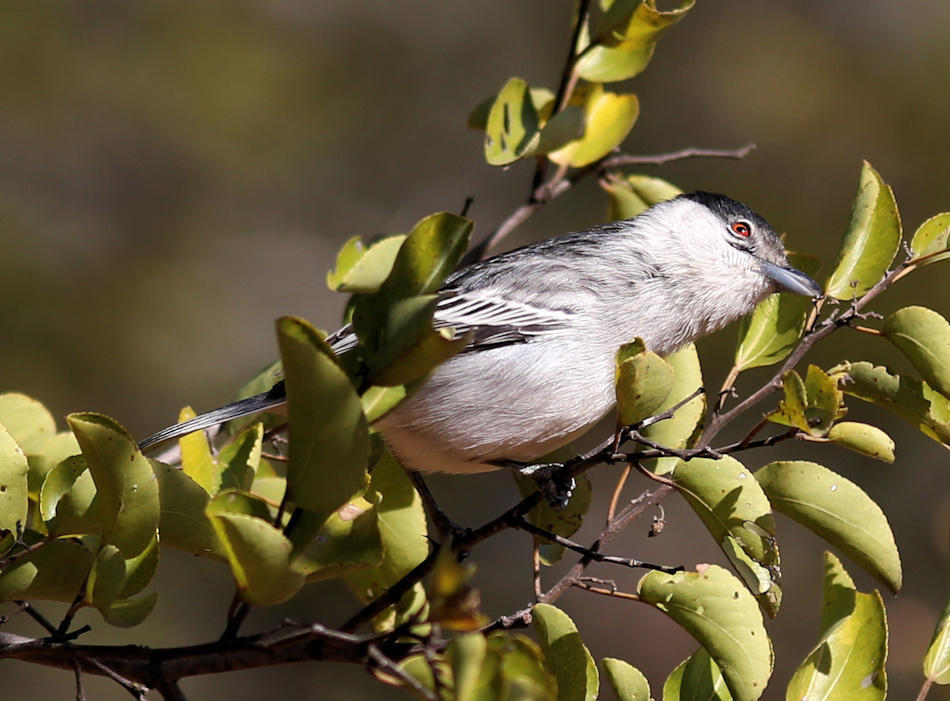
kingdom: Animalia
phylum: Chordata
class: Aves
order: Passeriformes
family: Malaconotidae
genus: Dryoscopus
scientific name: Dryoscopus cubla
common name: Black-backed puffback
